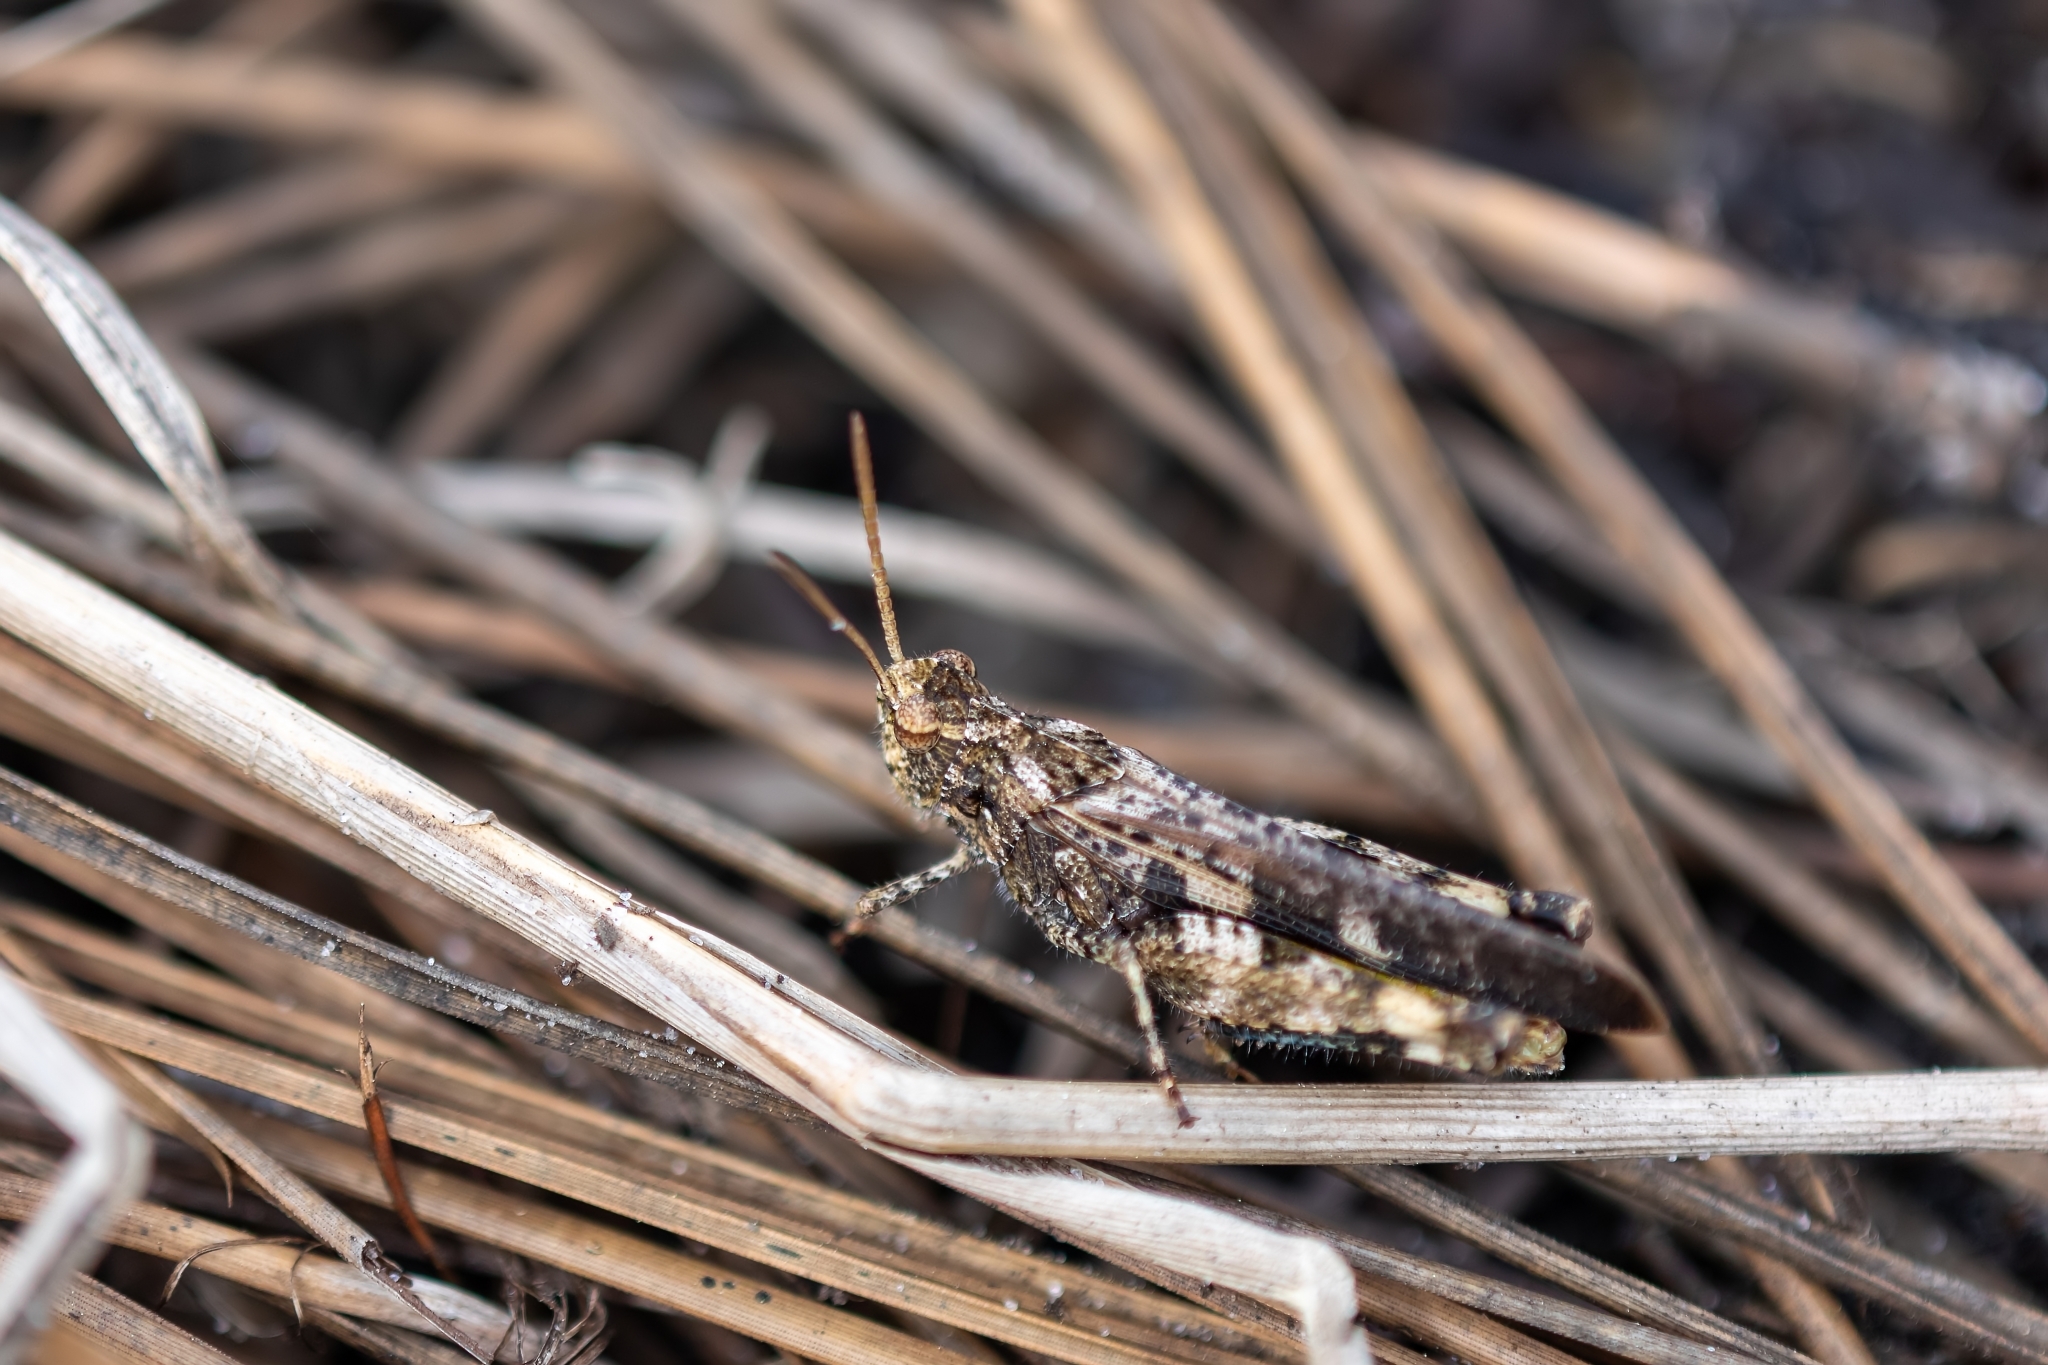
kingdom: Animalia
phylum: Arthropoda
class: Insecta
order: Orthoptera
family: Acrididae
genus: Chortophaga
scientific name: Chortophaga australior
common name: Southern green-striped grasshopper
